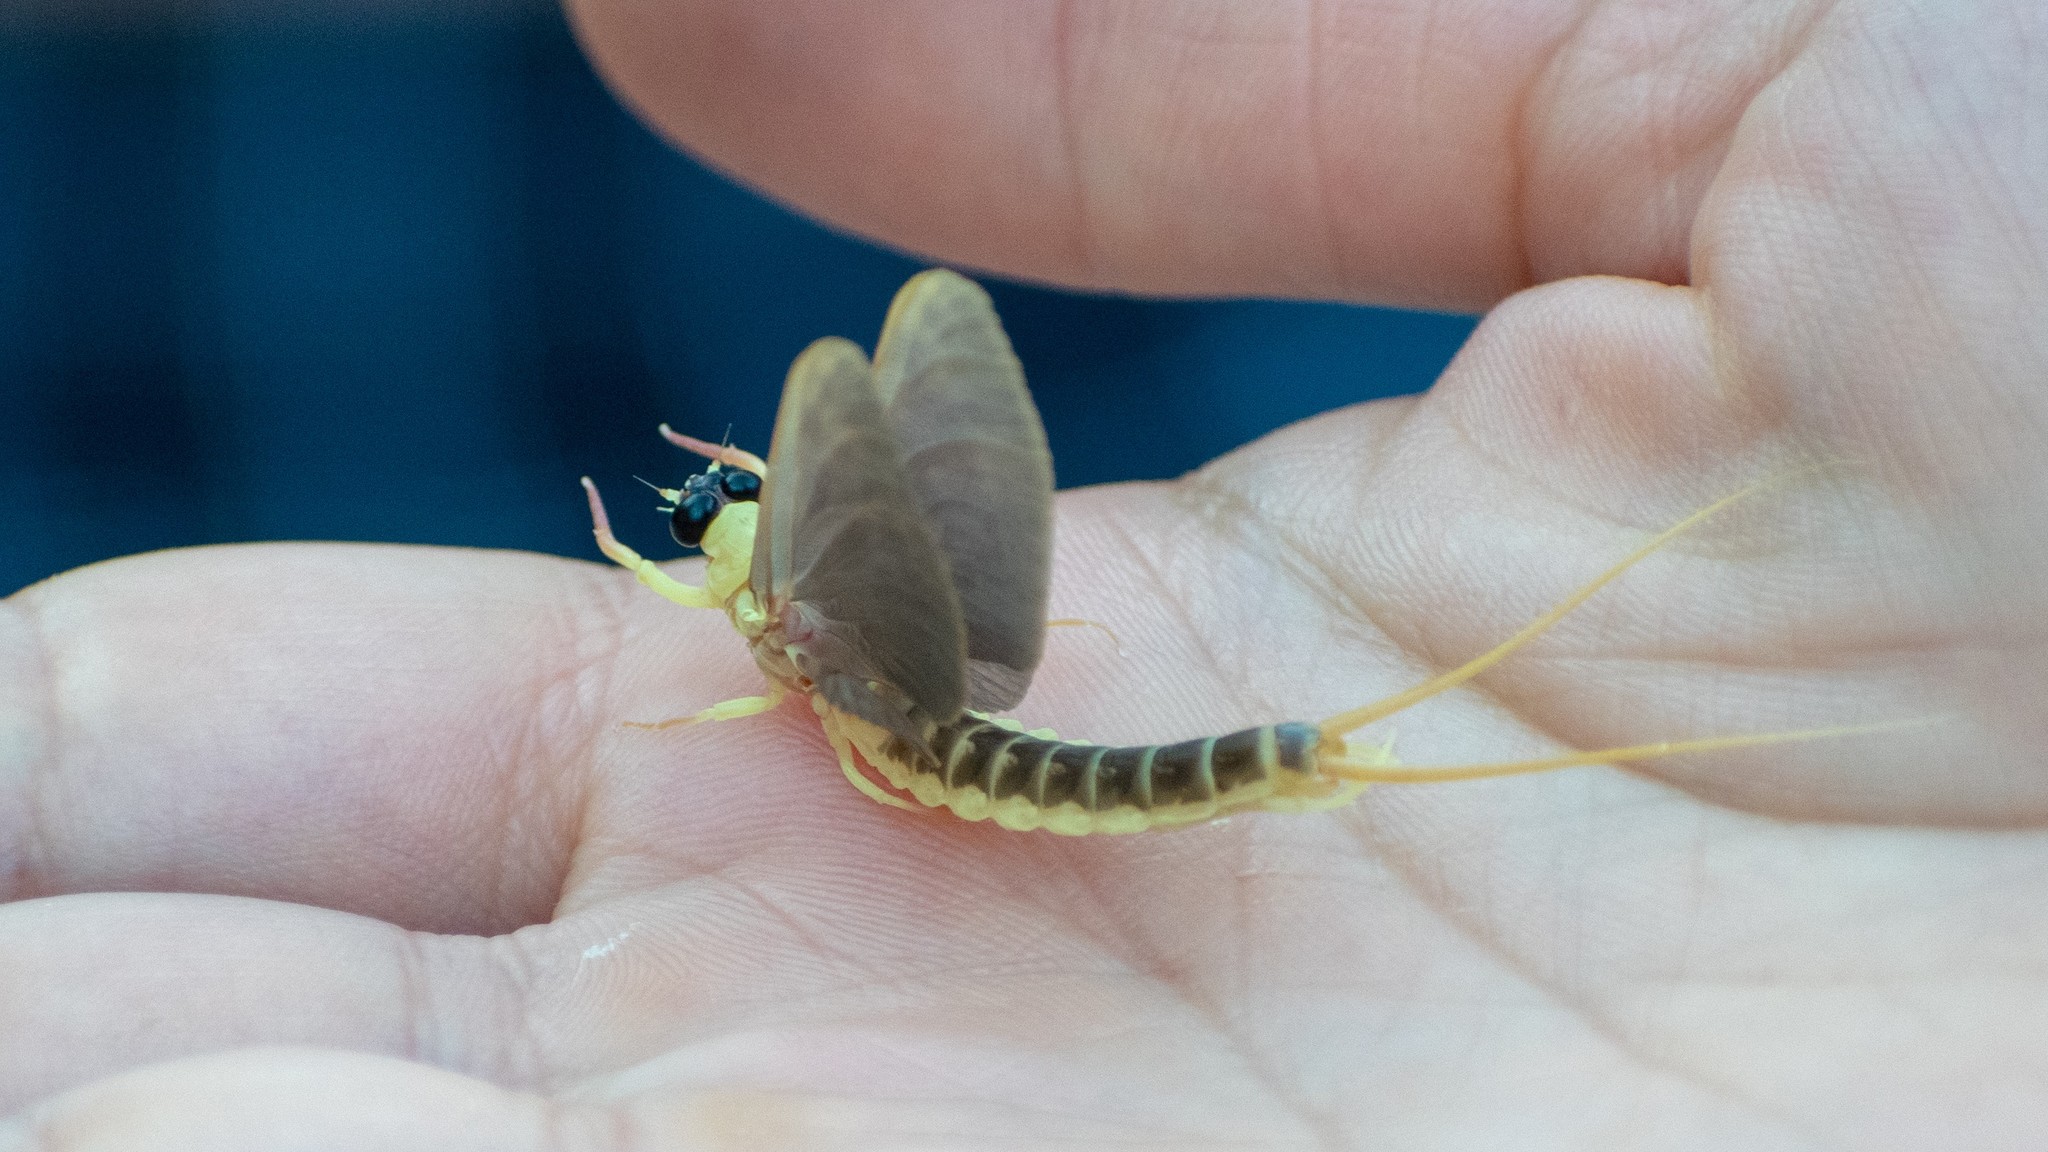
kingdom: Animalia
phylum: Arthropoda
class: Insecta
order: Ephemeroptera
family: Palingeniidae
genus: Palingenia
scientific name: Palingenia longicauda
